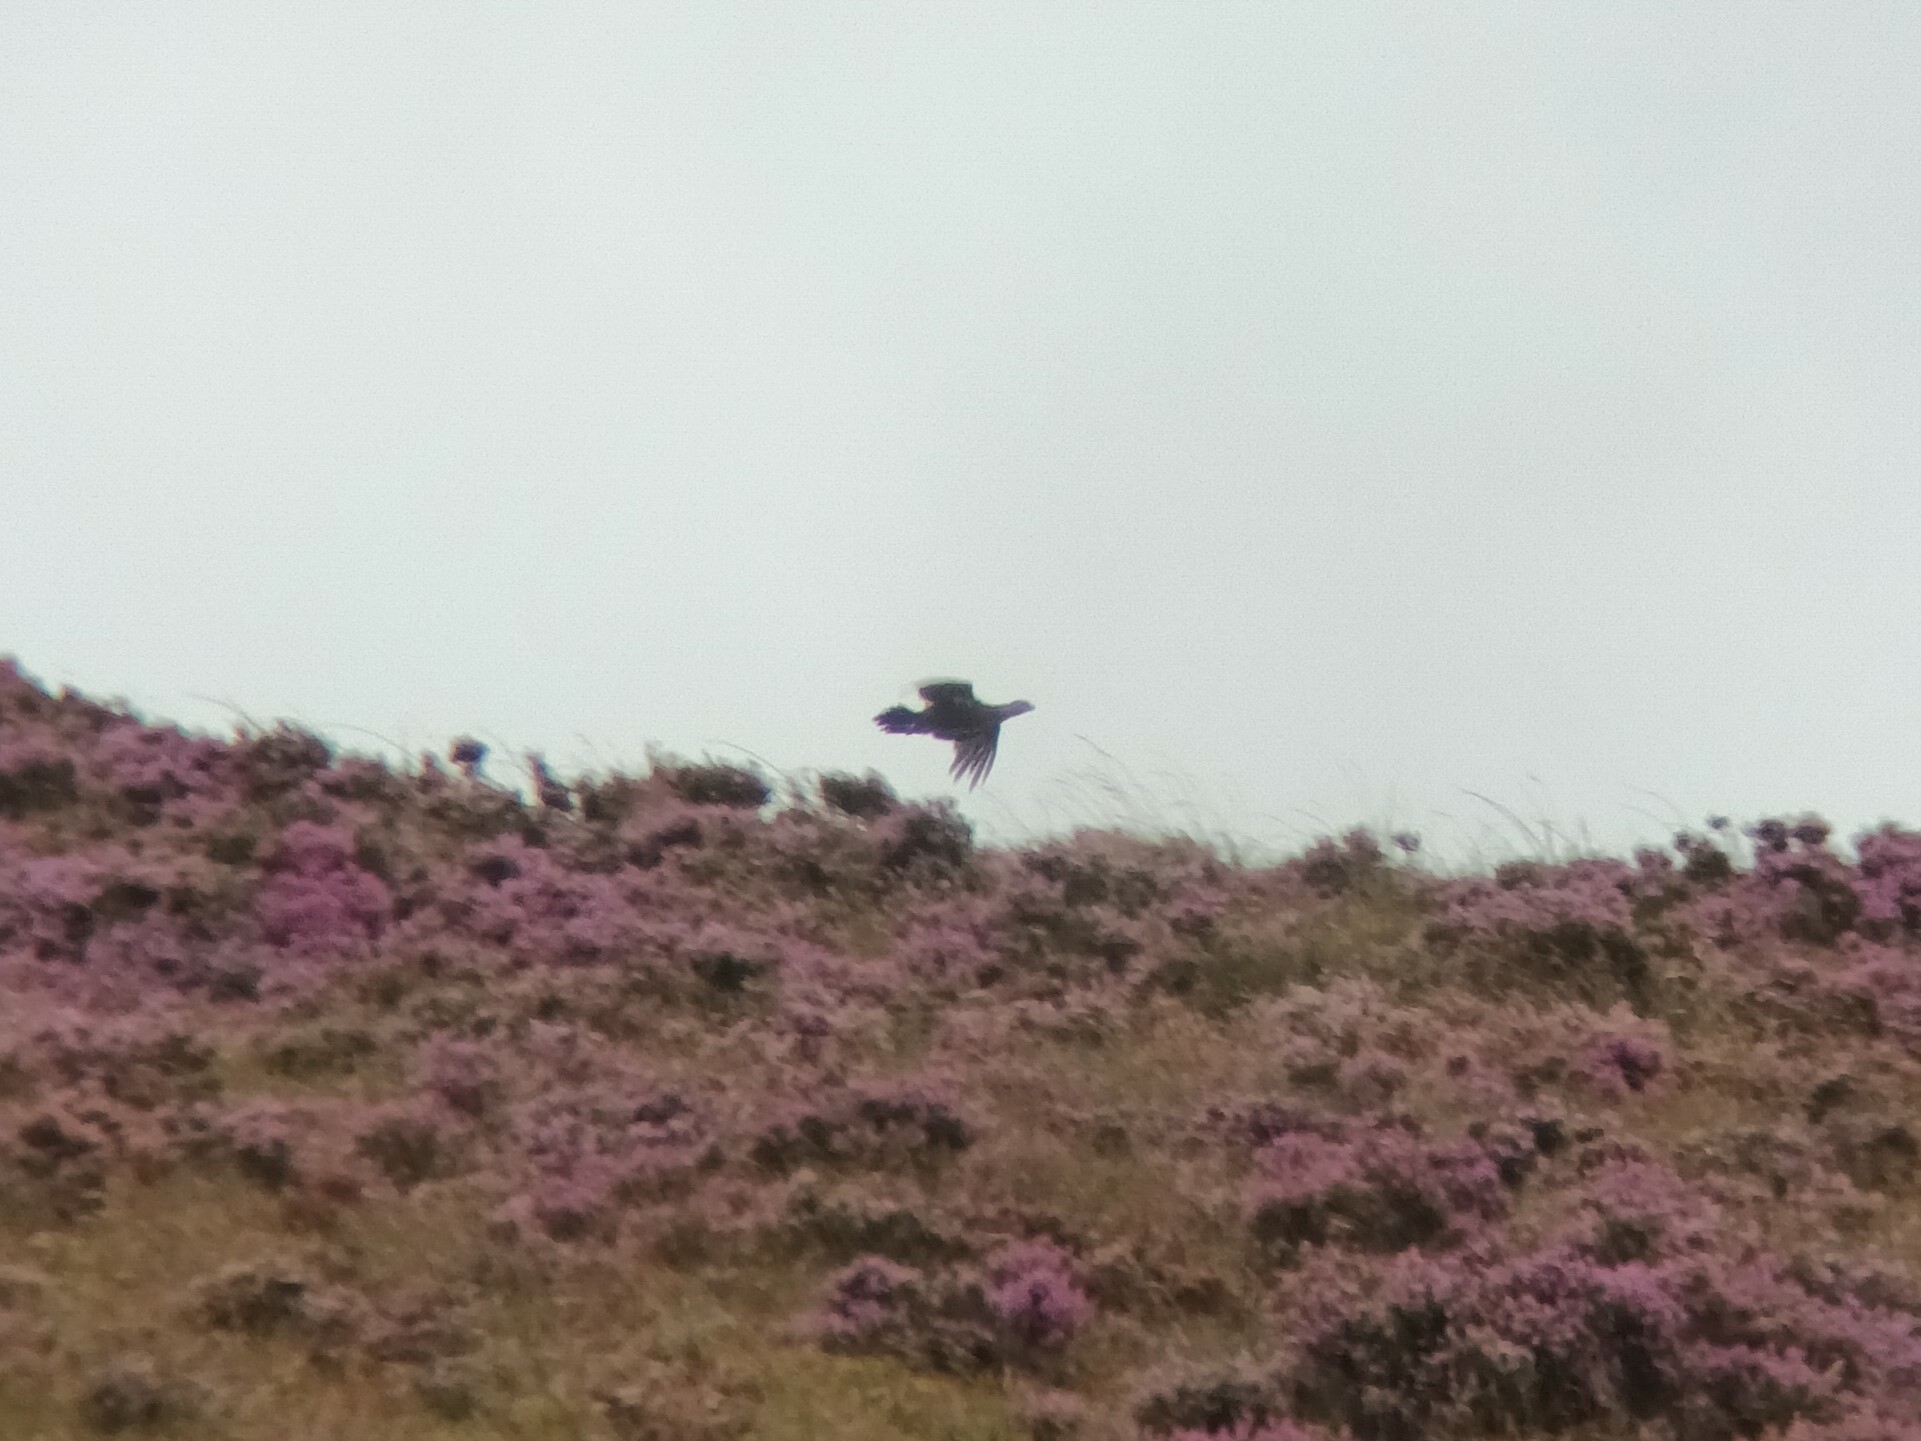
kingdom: Animalia
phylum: Chordata
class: Aves
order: Galliformes
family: Phasianidae
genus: Lagopus
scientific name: Lagopus lagopus
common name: Willow ptarmigan
